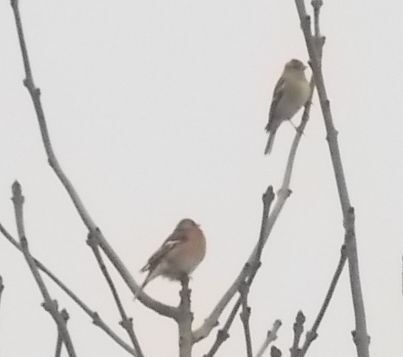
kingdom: Animalia
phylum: Chordata
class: Aves
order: Passeriformes
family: Fringillidae
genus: Fringilla
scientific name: Fringilla coelebs
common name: Common chaffinch
